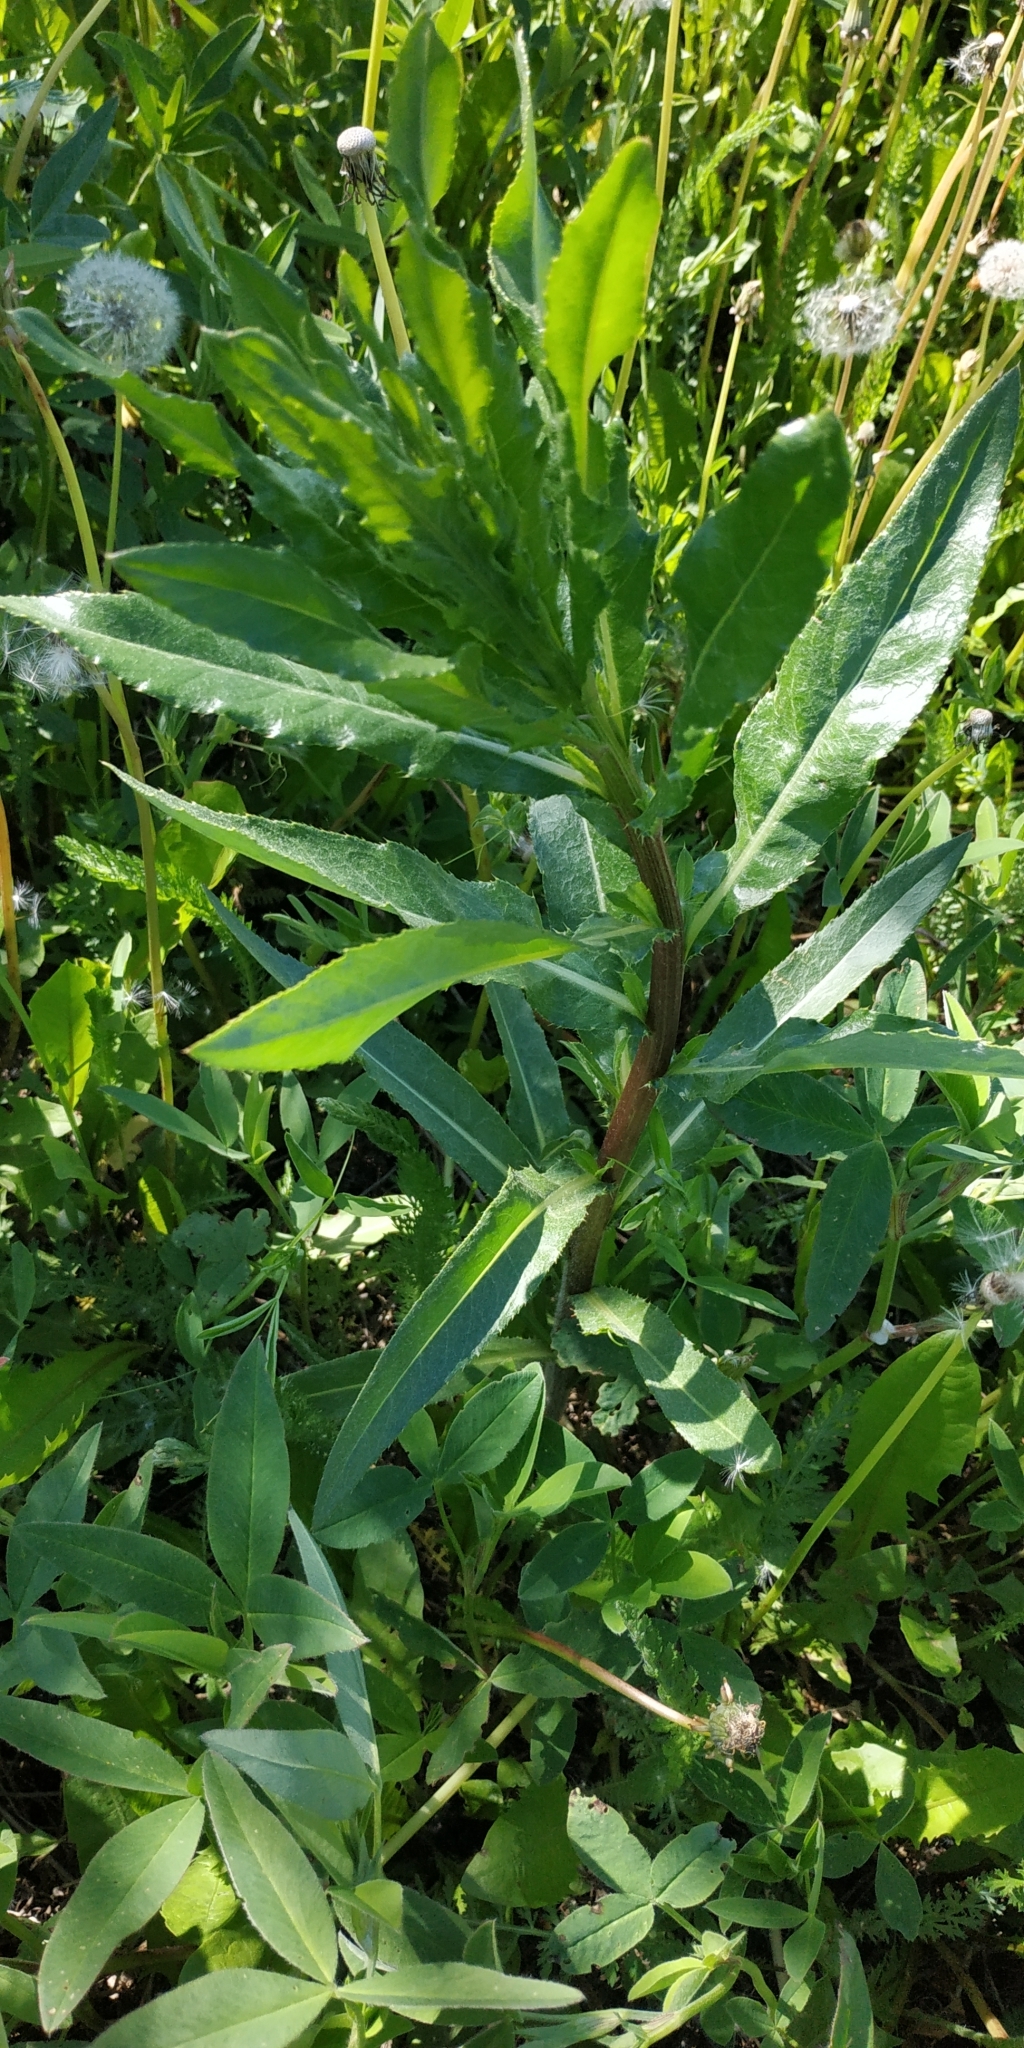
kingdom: Plantae
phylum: Tracheophyta
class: Magnoliopsida
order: Asterales
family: Asteraceae
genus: Cirsium
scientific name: Cirsium arvense
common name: Creeping thistle
